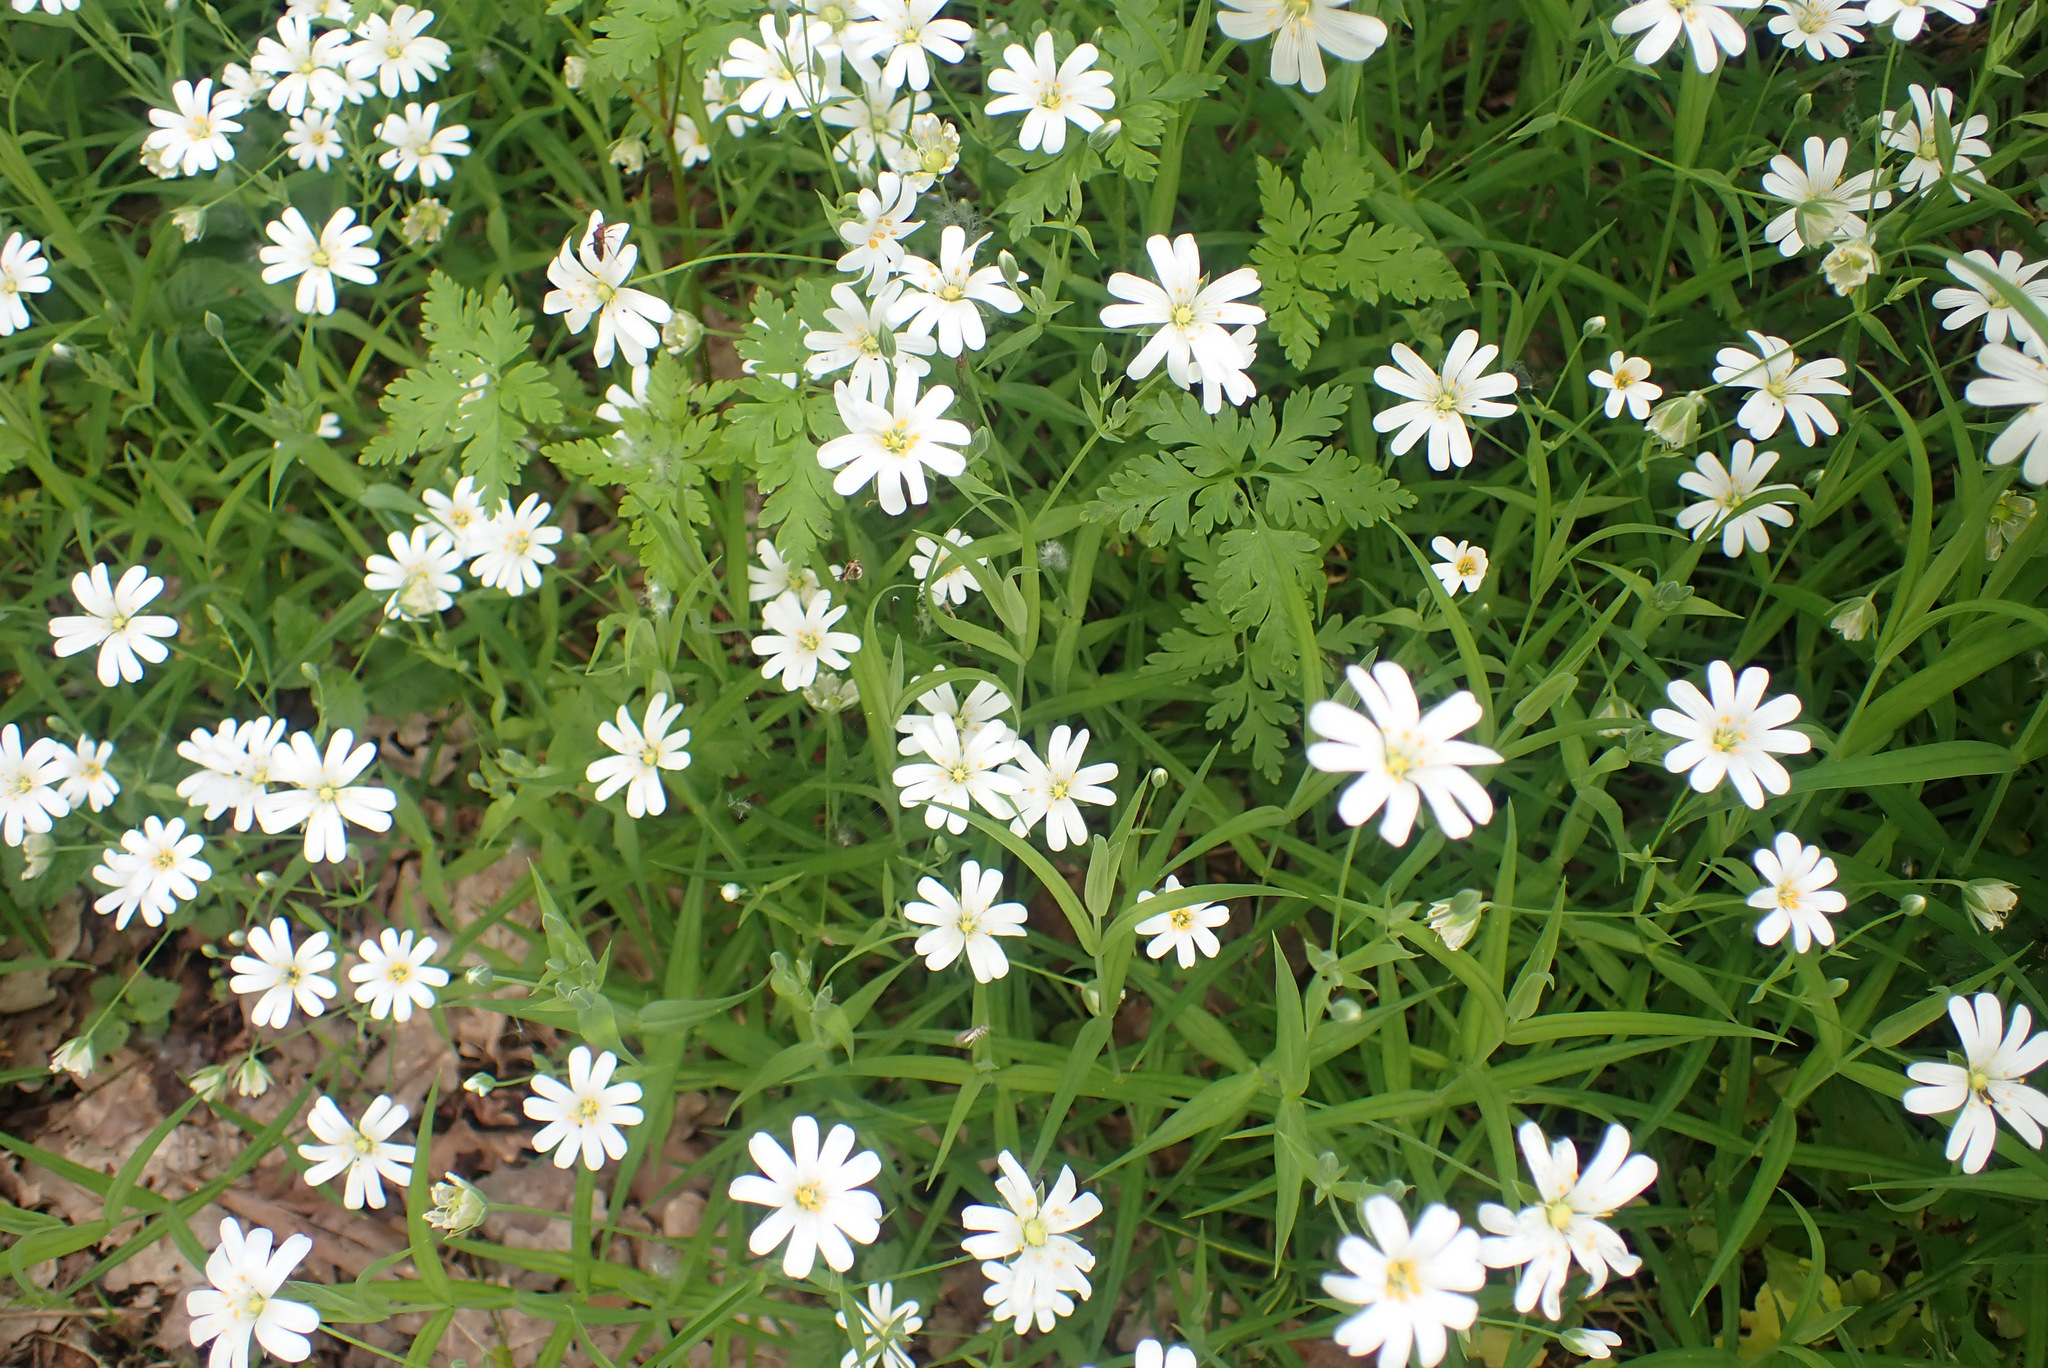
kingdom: Plantae
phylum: Tracheophyta
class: Magnoliopsida
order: Caryophyllales
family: Caryophyllaceae
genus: Rabelera
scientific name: Rabelera holostea
